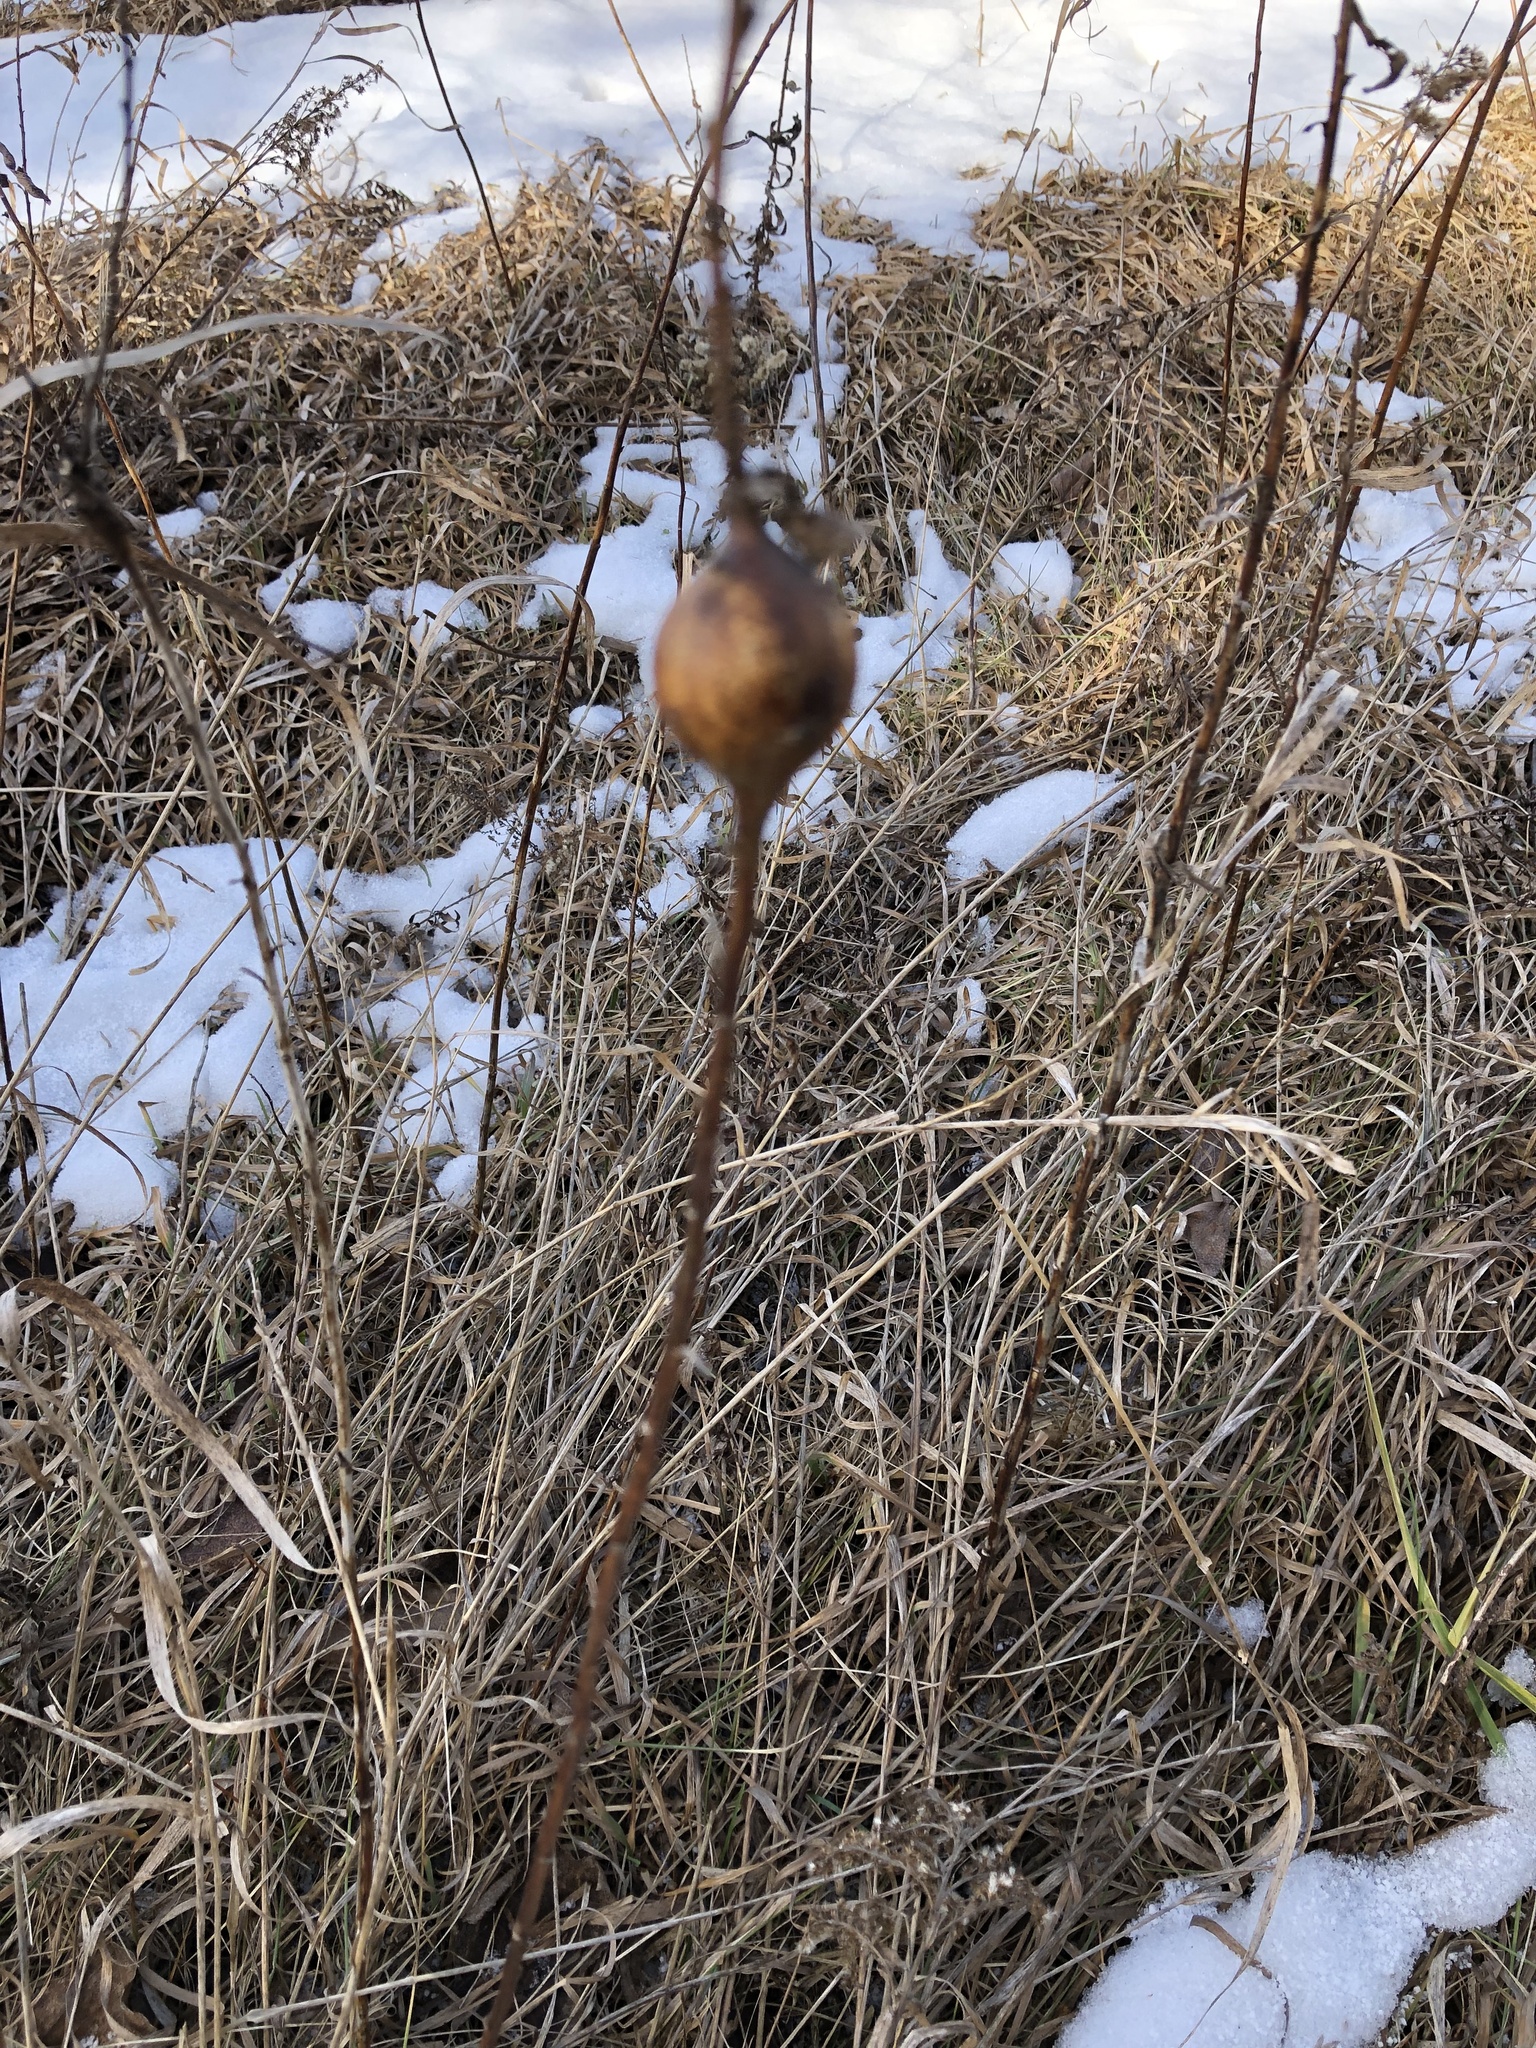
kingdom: Animalia
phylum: Arthropoda
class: Insecta
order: Diptera
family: Tephritidae
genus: Eurosta
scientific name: Eurosta solidaginis
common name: Goldenrod gall fly
